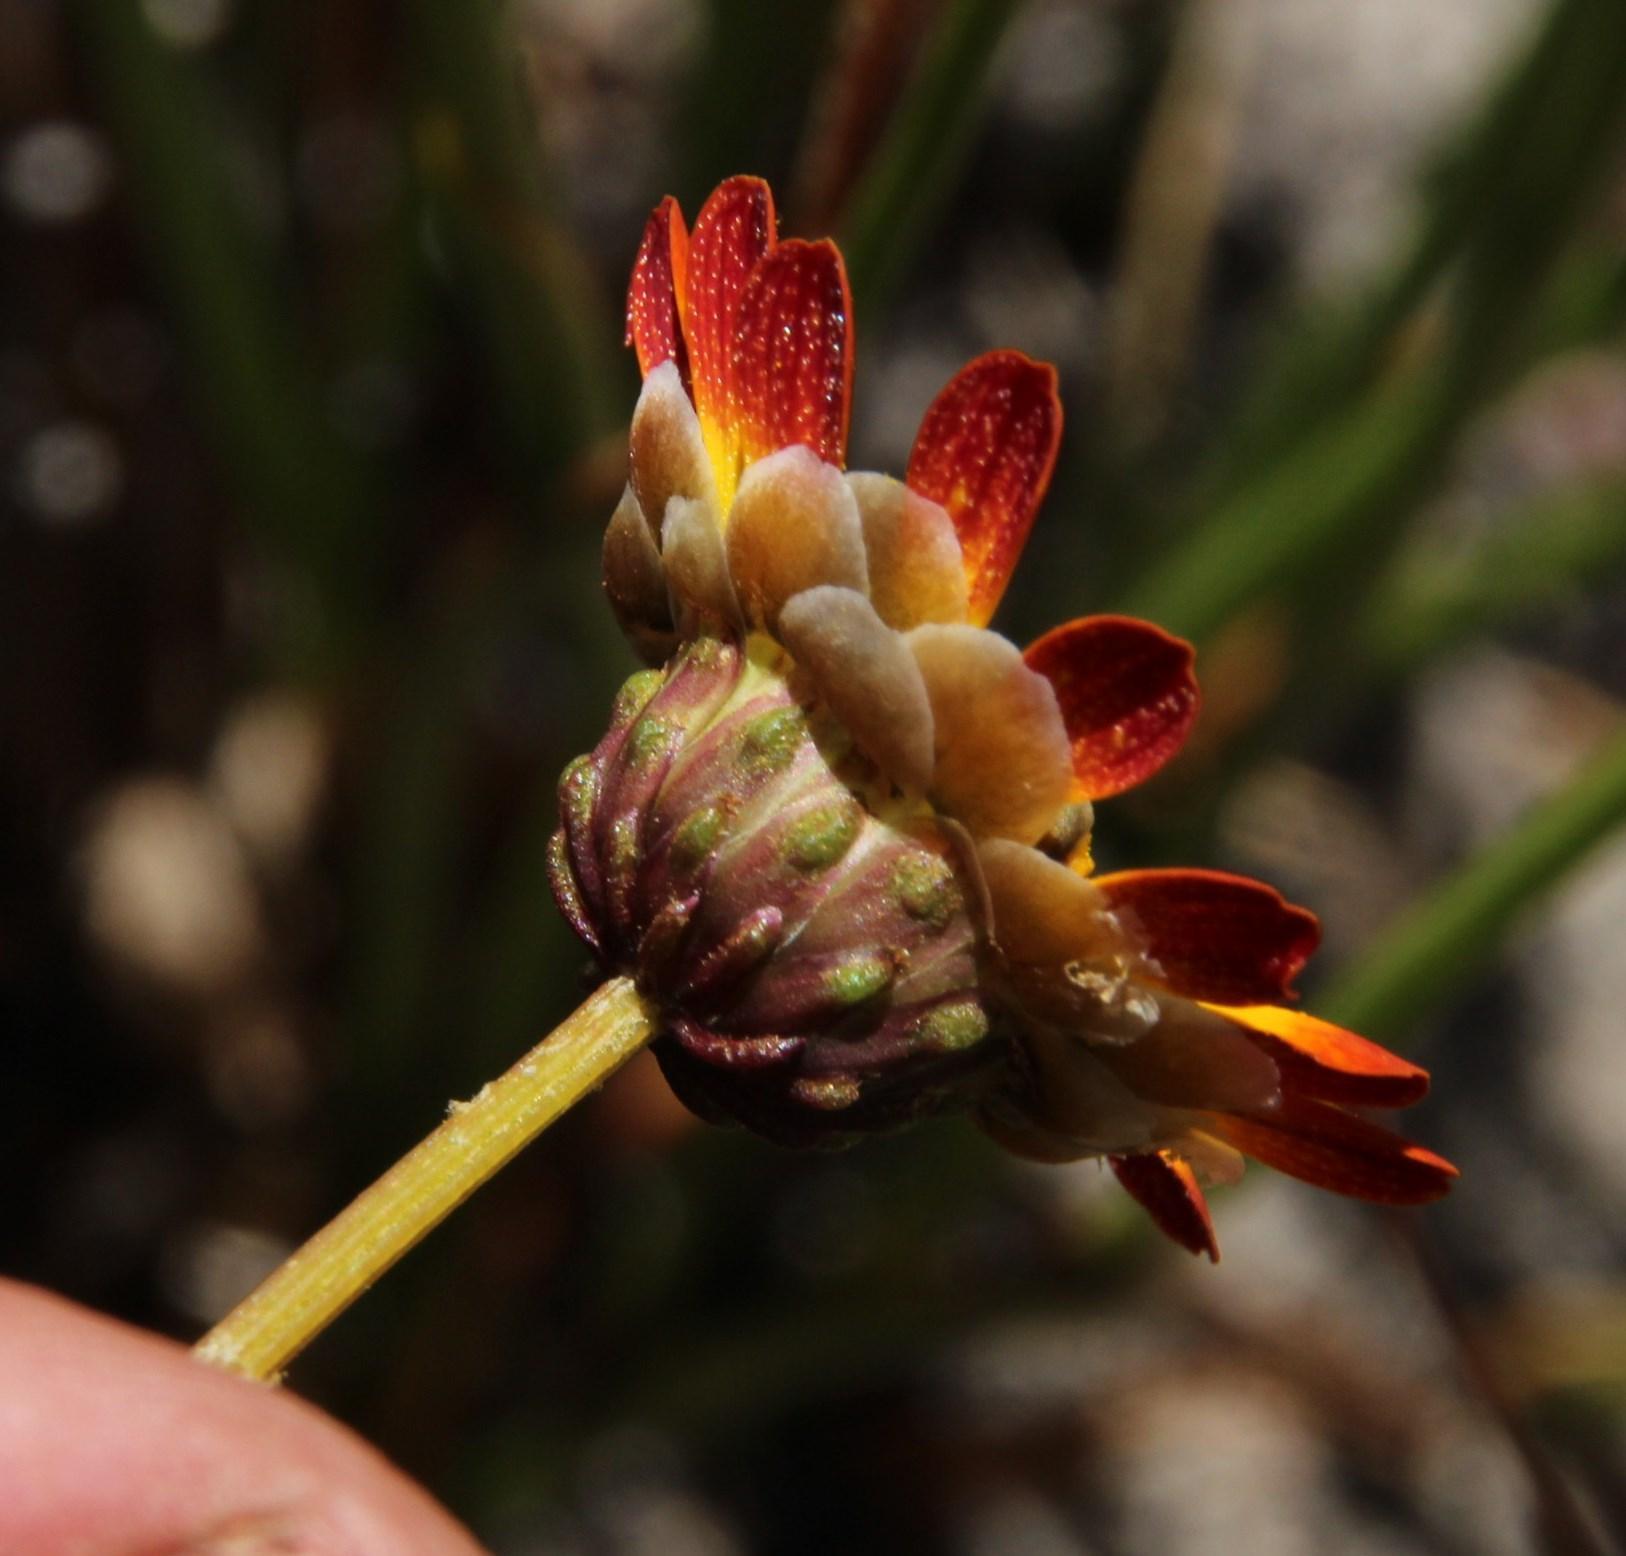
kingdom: Plantae
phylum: Tracheophyta
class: Magnoliopsida
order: Asterales
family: Asteraceae
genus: Ursinia
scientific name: Ursinia oreogena
